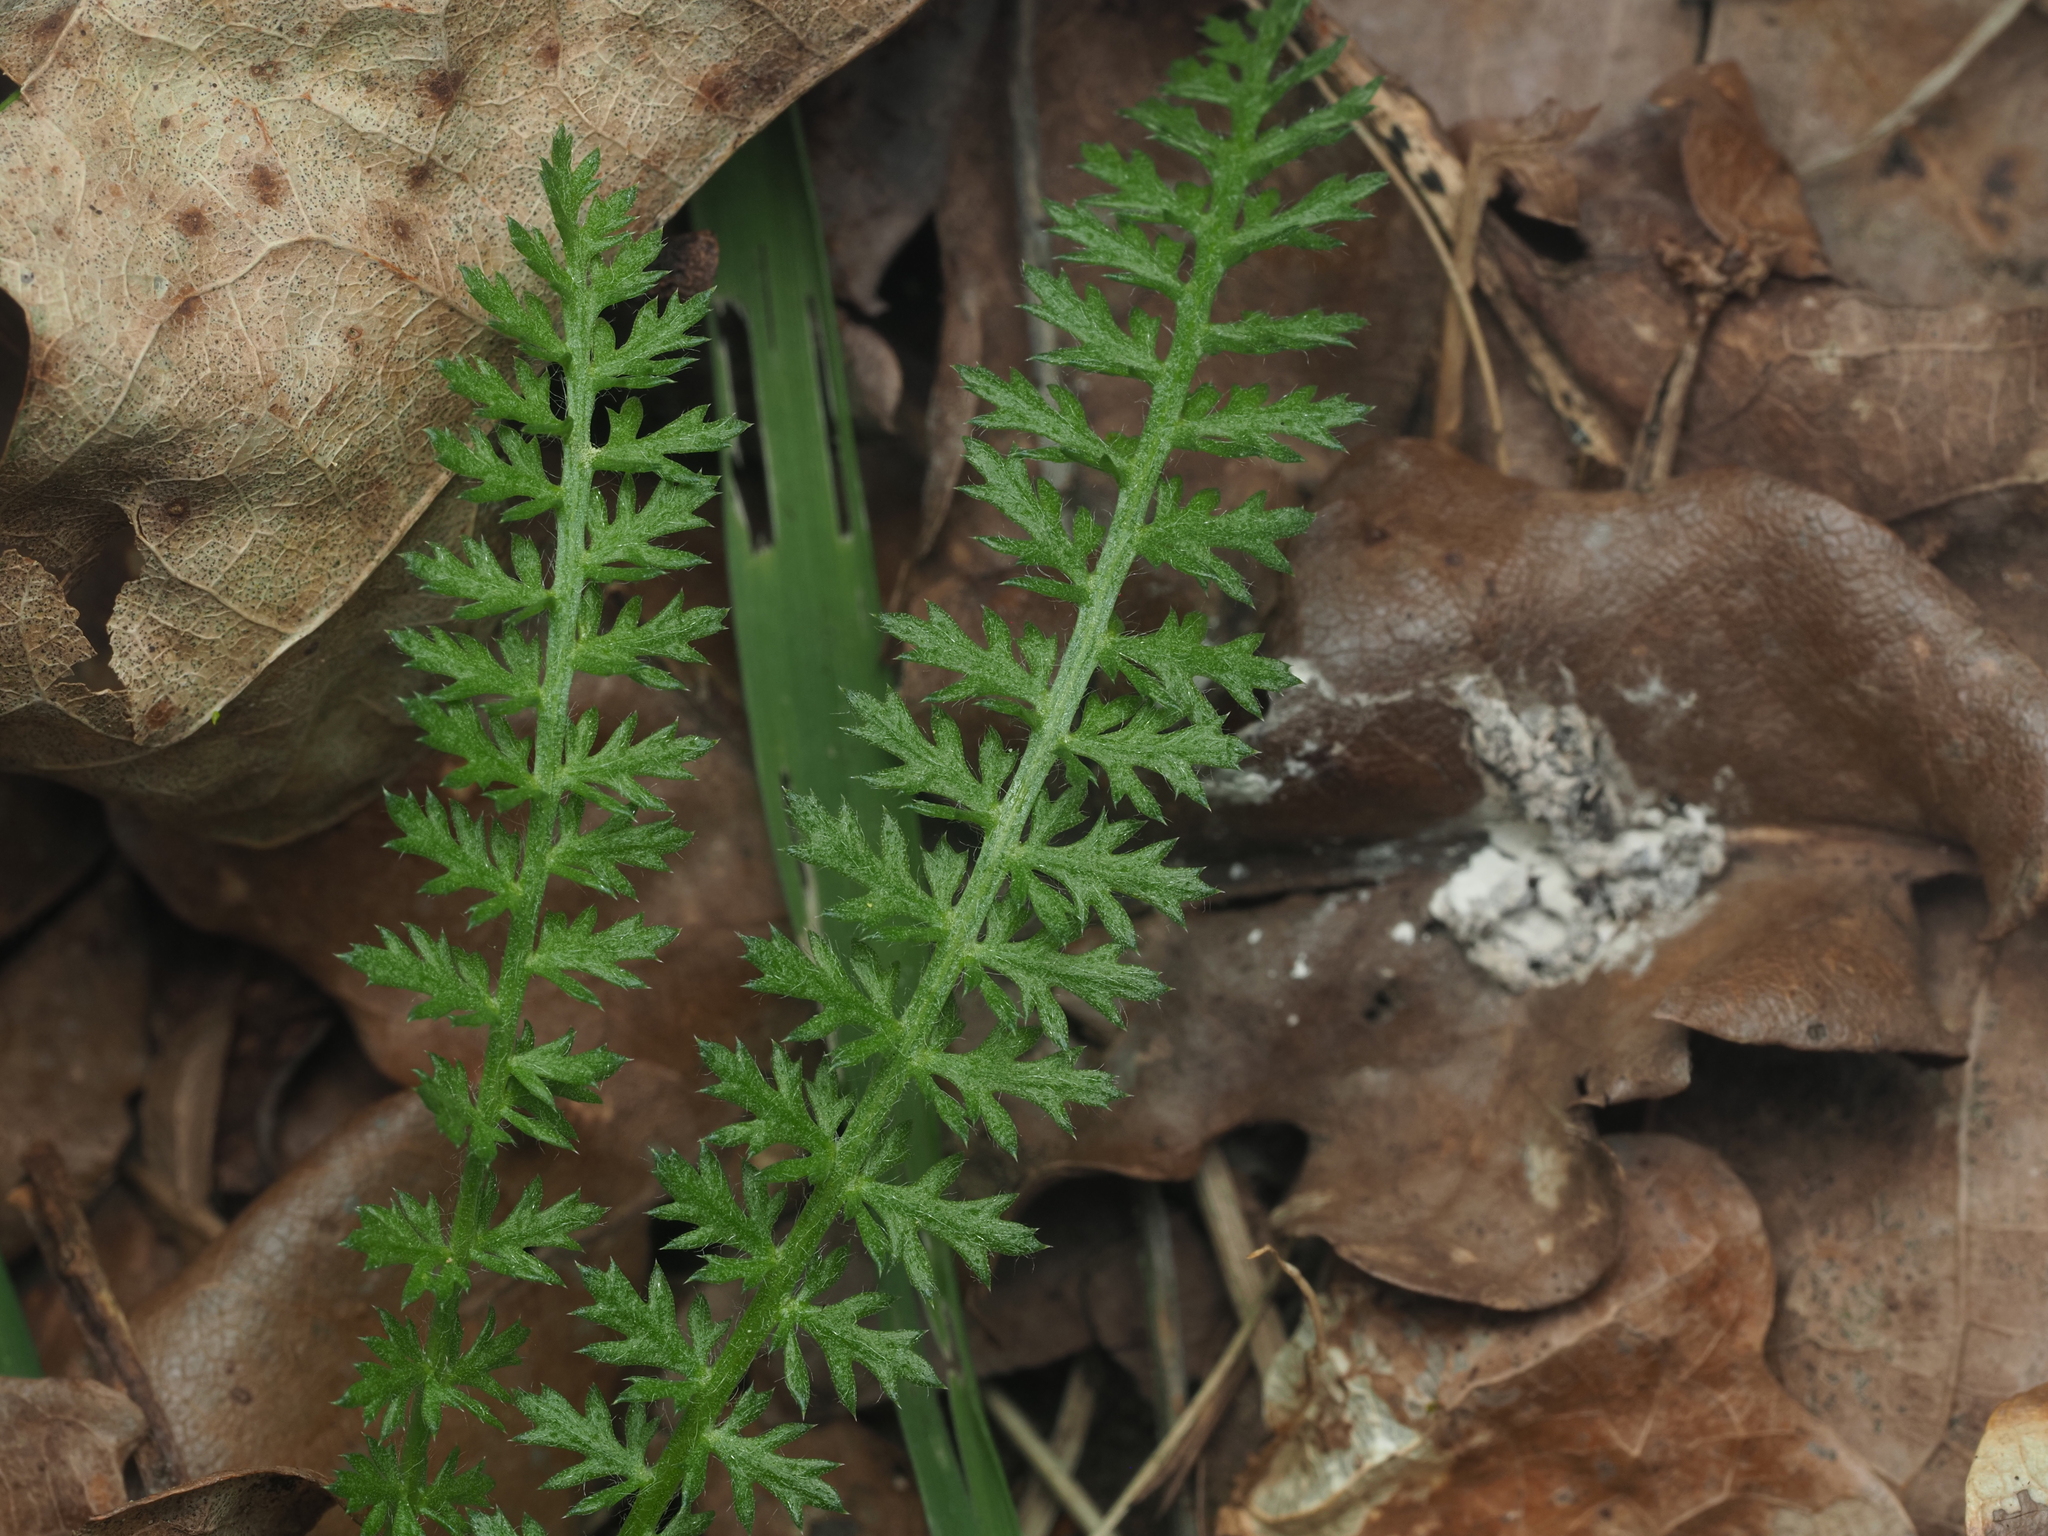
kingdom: Plantae
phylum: Tracheophyta
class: Magnoliopsida
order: Asterales
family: Asteraceae
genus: Achillea
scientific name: Achillea millefolium
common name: Yarrow
